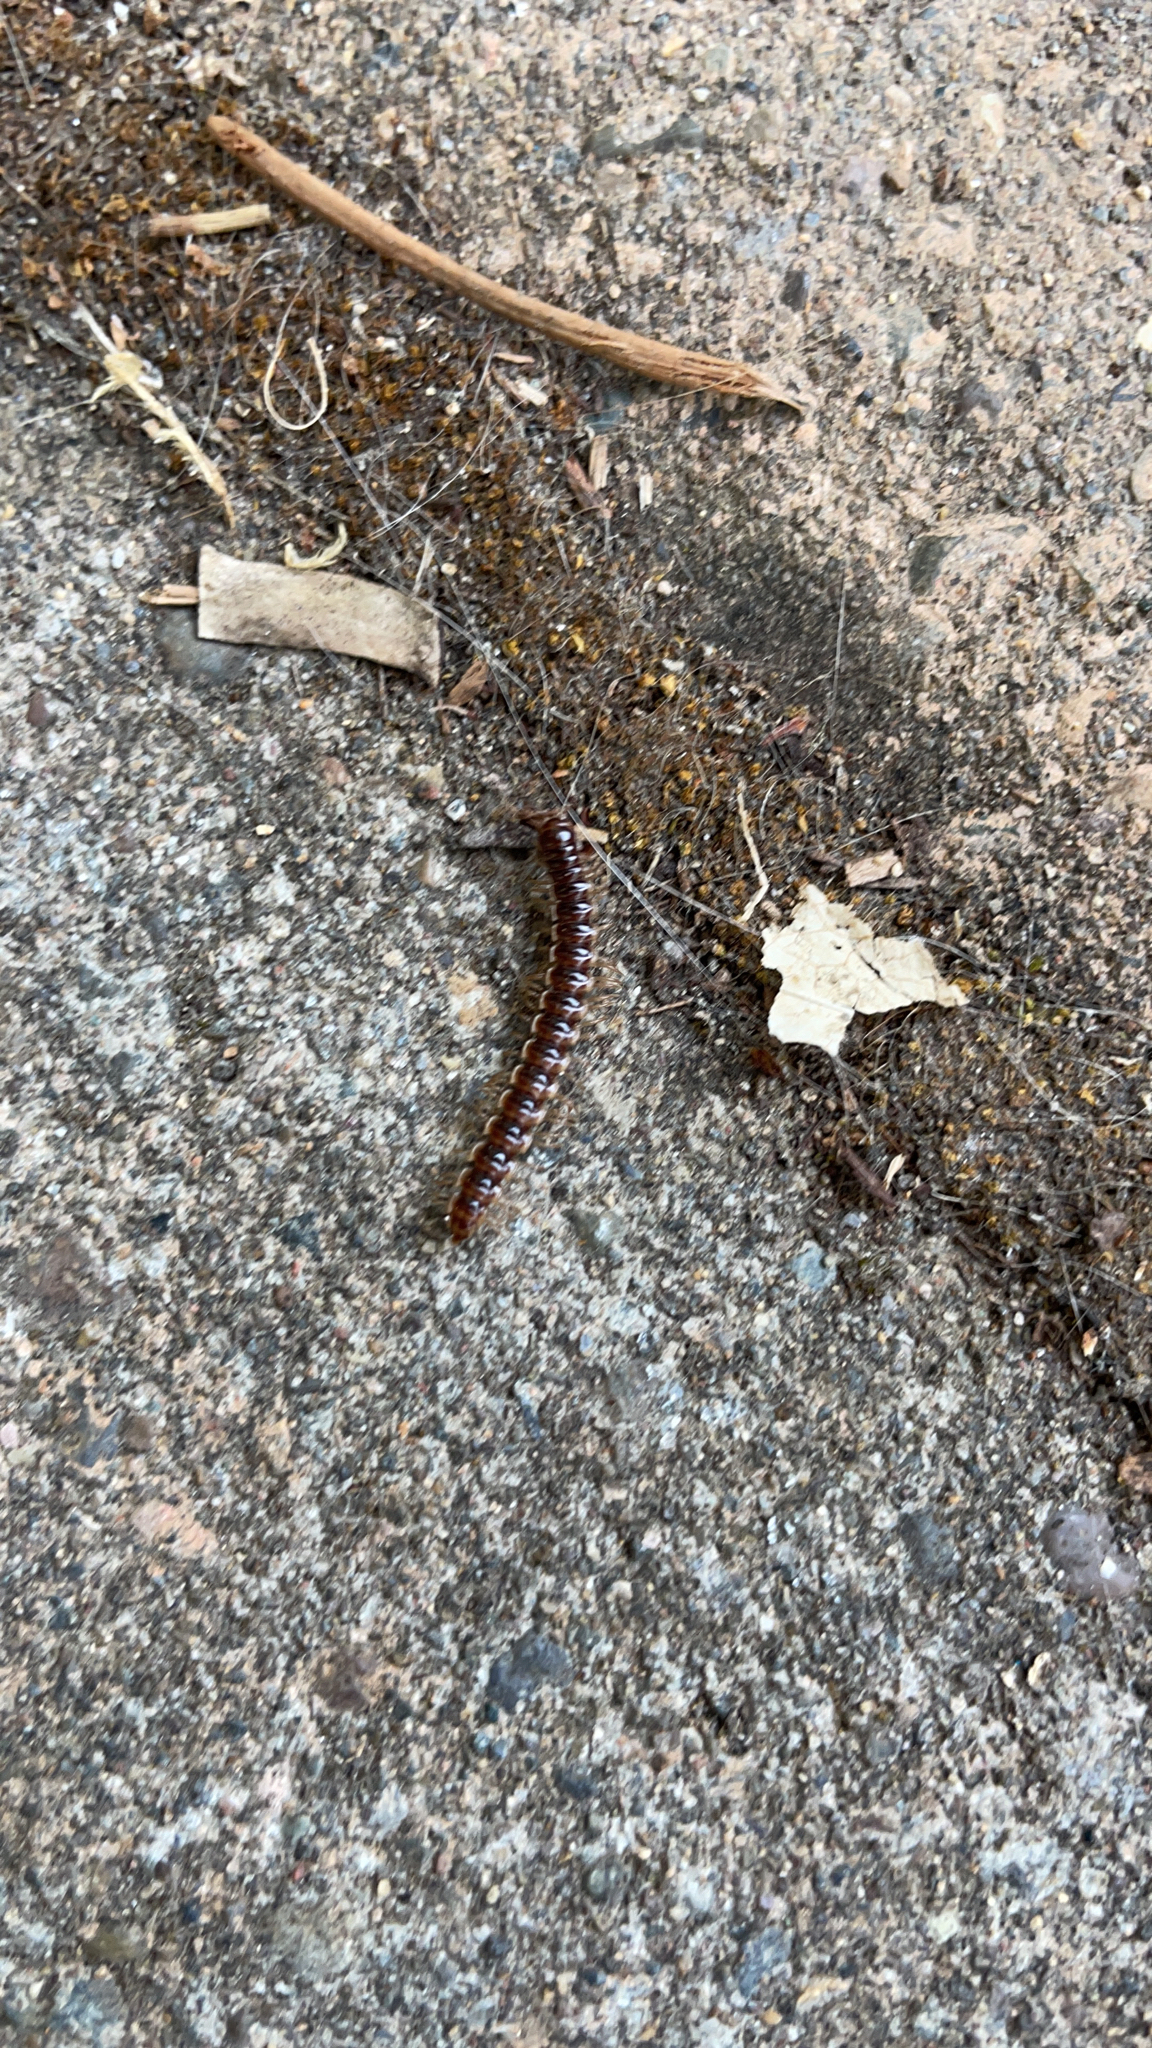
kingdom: Animalia
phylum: Arthropoda
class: Diplopoda
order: Polydesmida
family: Paradoxosomatidae
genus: Oxidus
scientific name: Oxidus gracilis
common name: Greenhouse millipede
